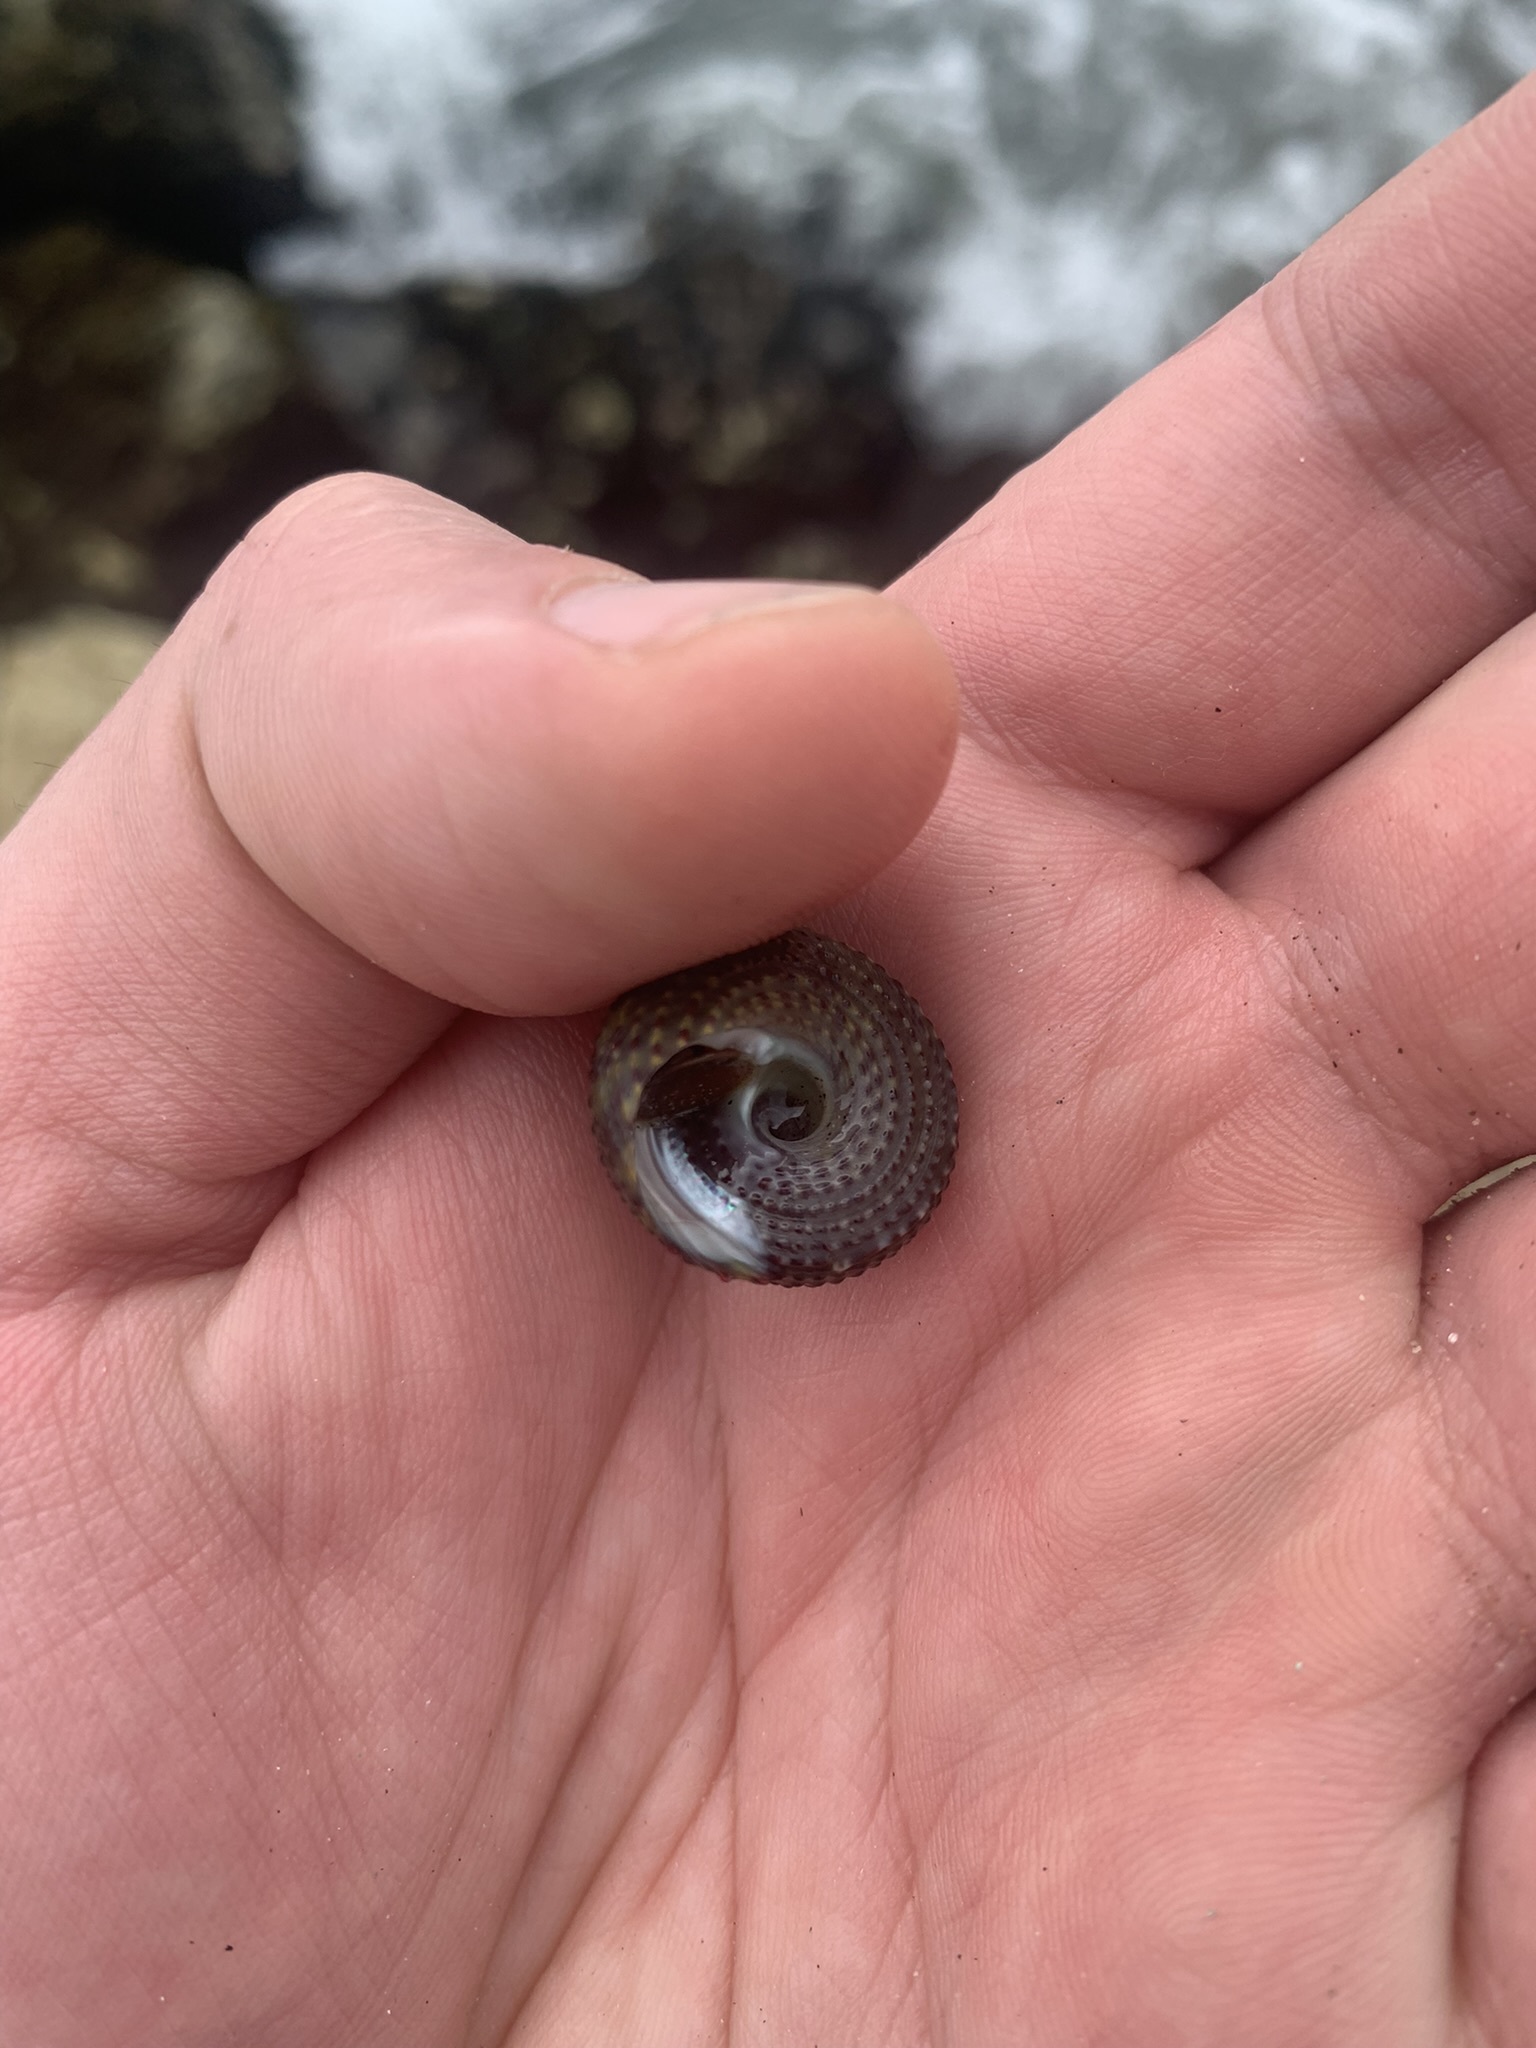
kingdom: Animalia
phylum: Mollusca
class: Gastropoda
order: Trochida
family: Tegulidae
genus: Agathistoma
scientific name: Agathistoma viridulum
